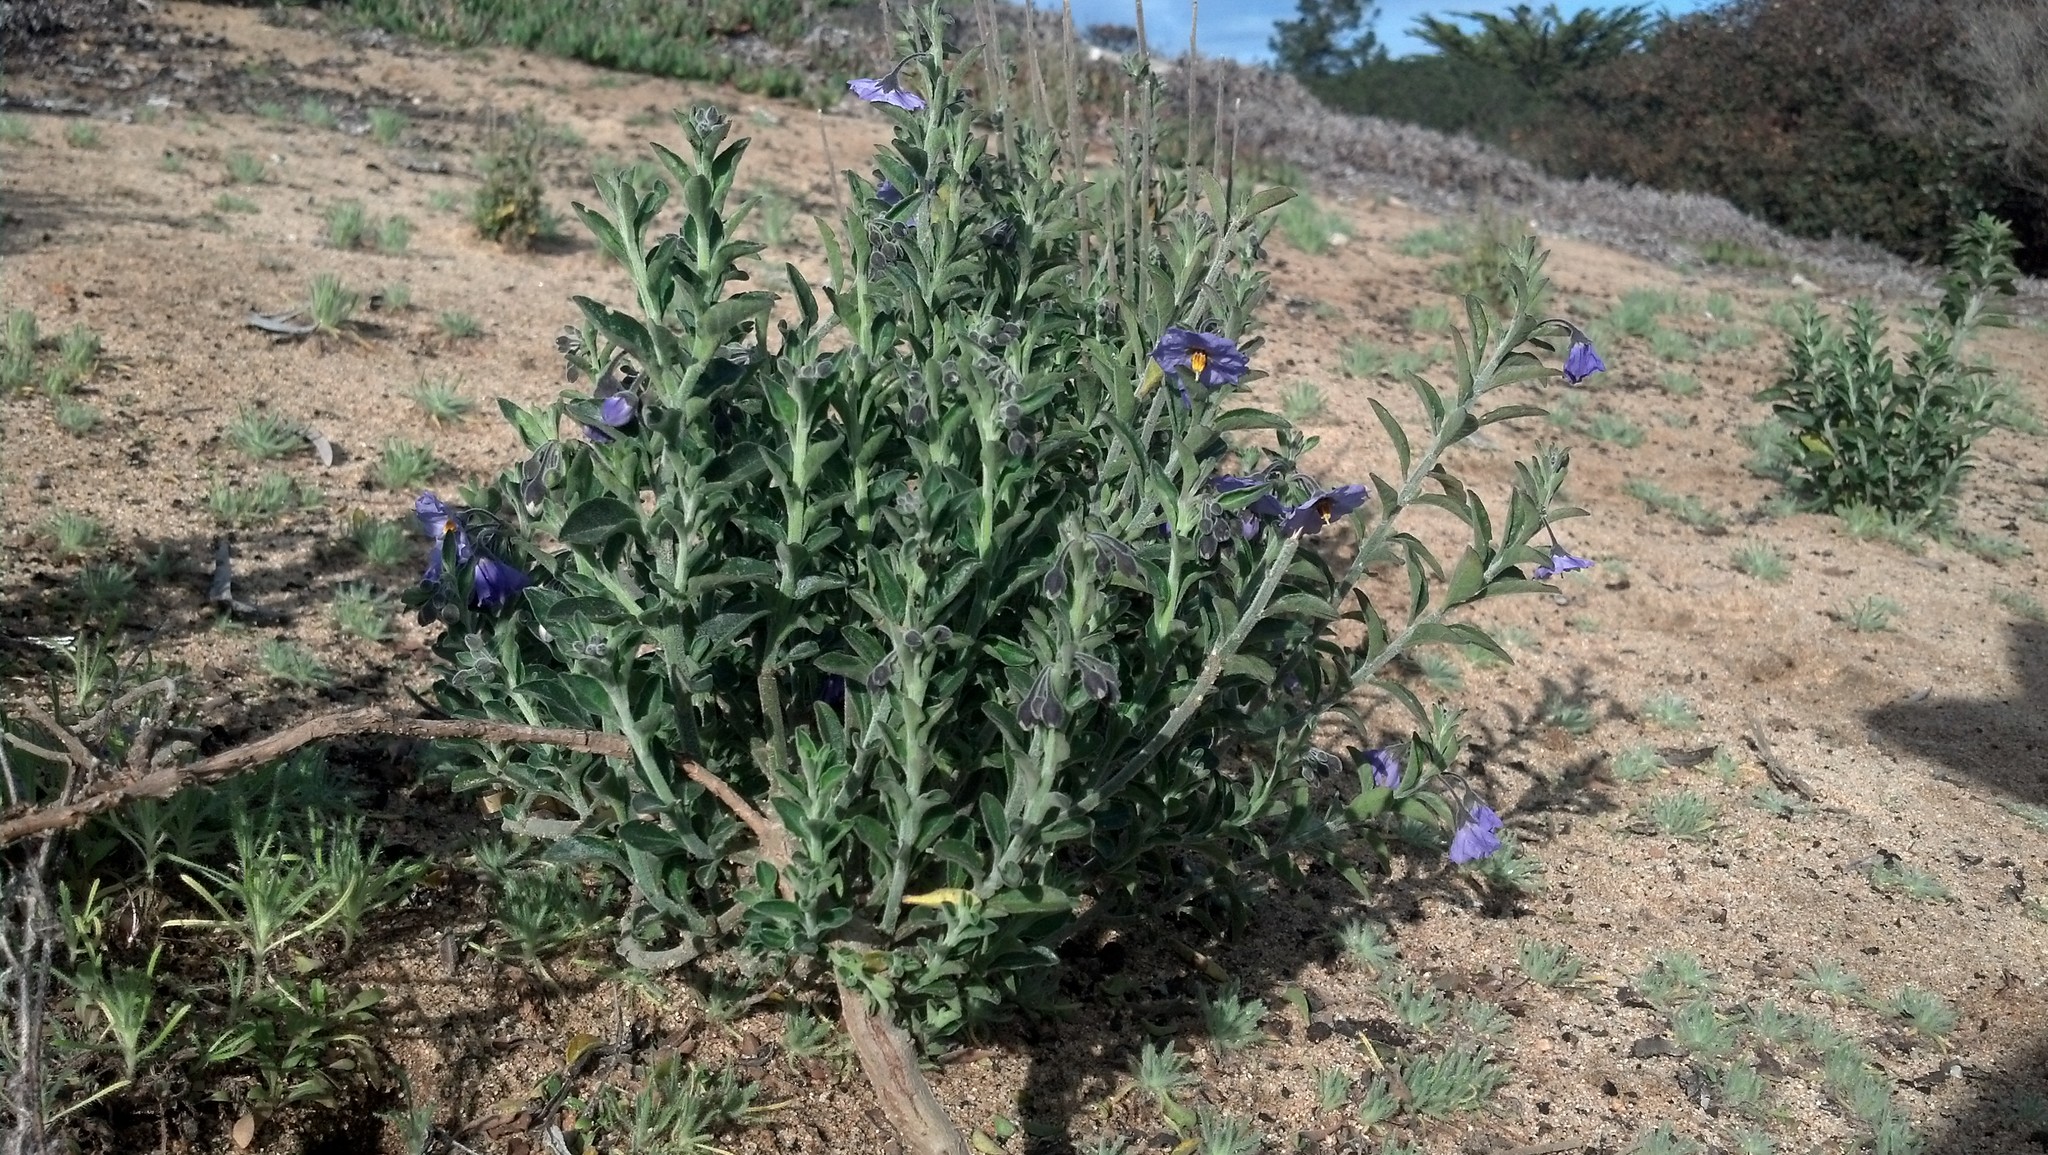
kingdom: Plantae
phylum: Tracheophyta
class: Magnoliopsida
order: Solanales
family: Solanaceae
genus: Solanum
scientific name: Solanum umbelliferum
